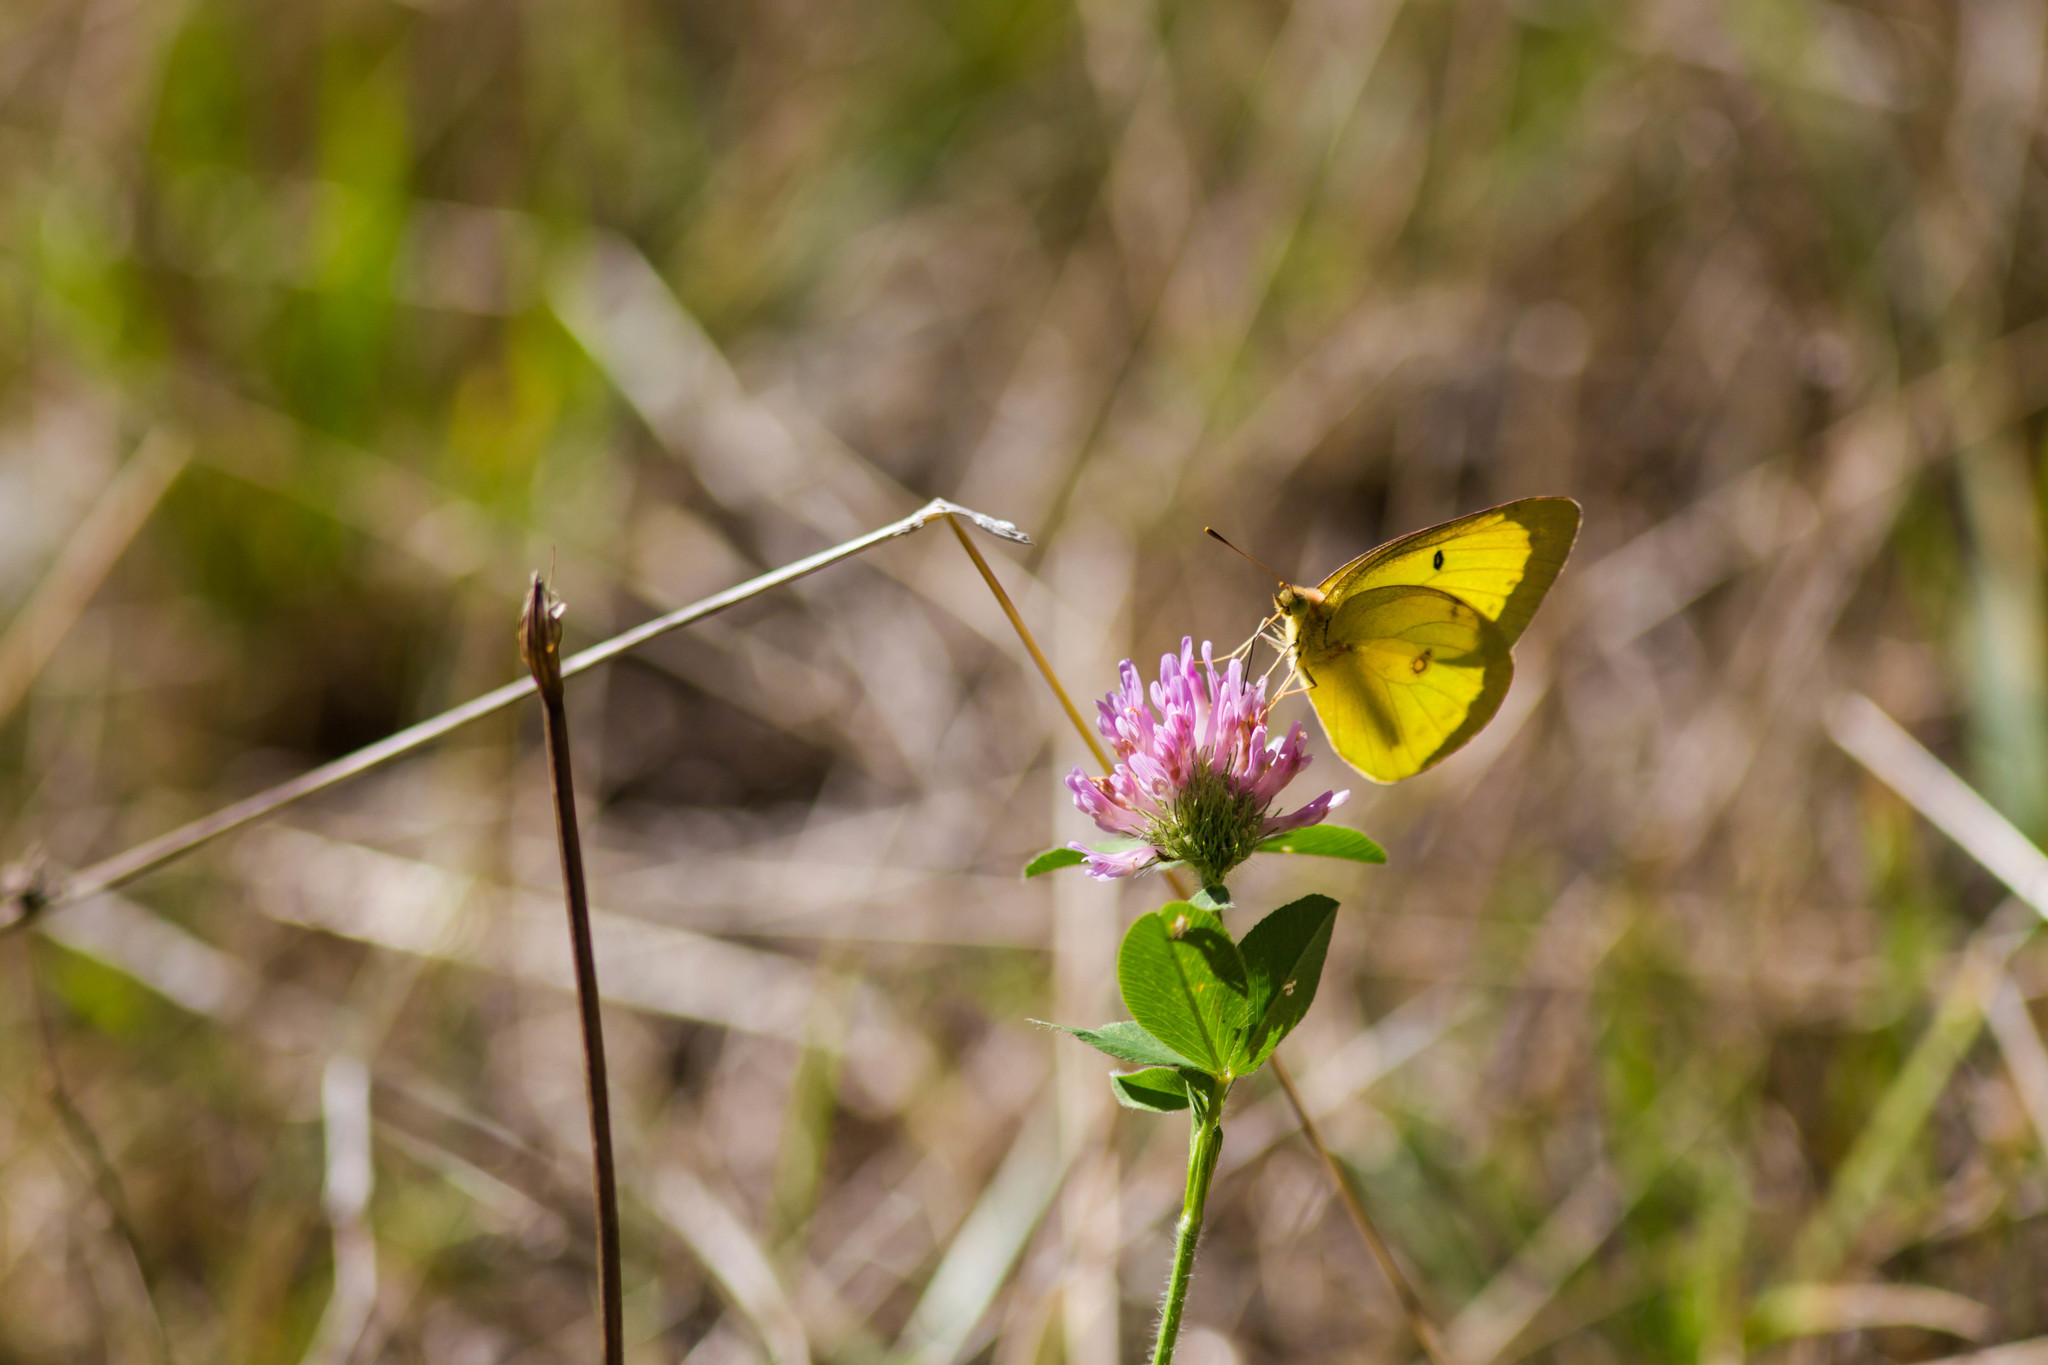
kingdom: Animalia
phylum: Arthropoda
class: Insecta
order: Lepidoptera
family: Pieridae
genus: Colias
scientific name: Colias philodice
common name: Clouded sulphur
